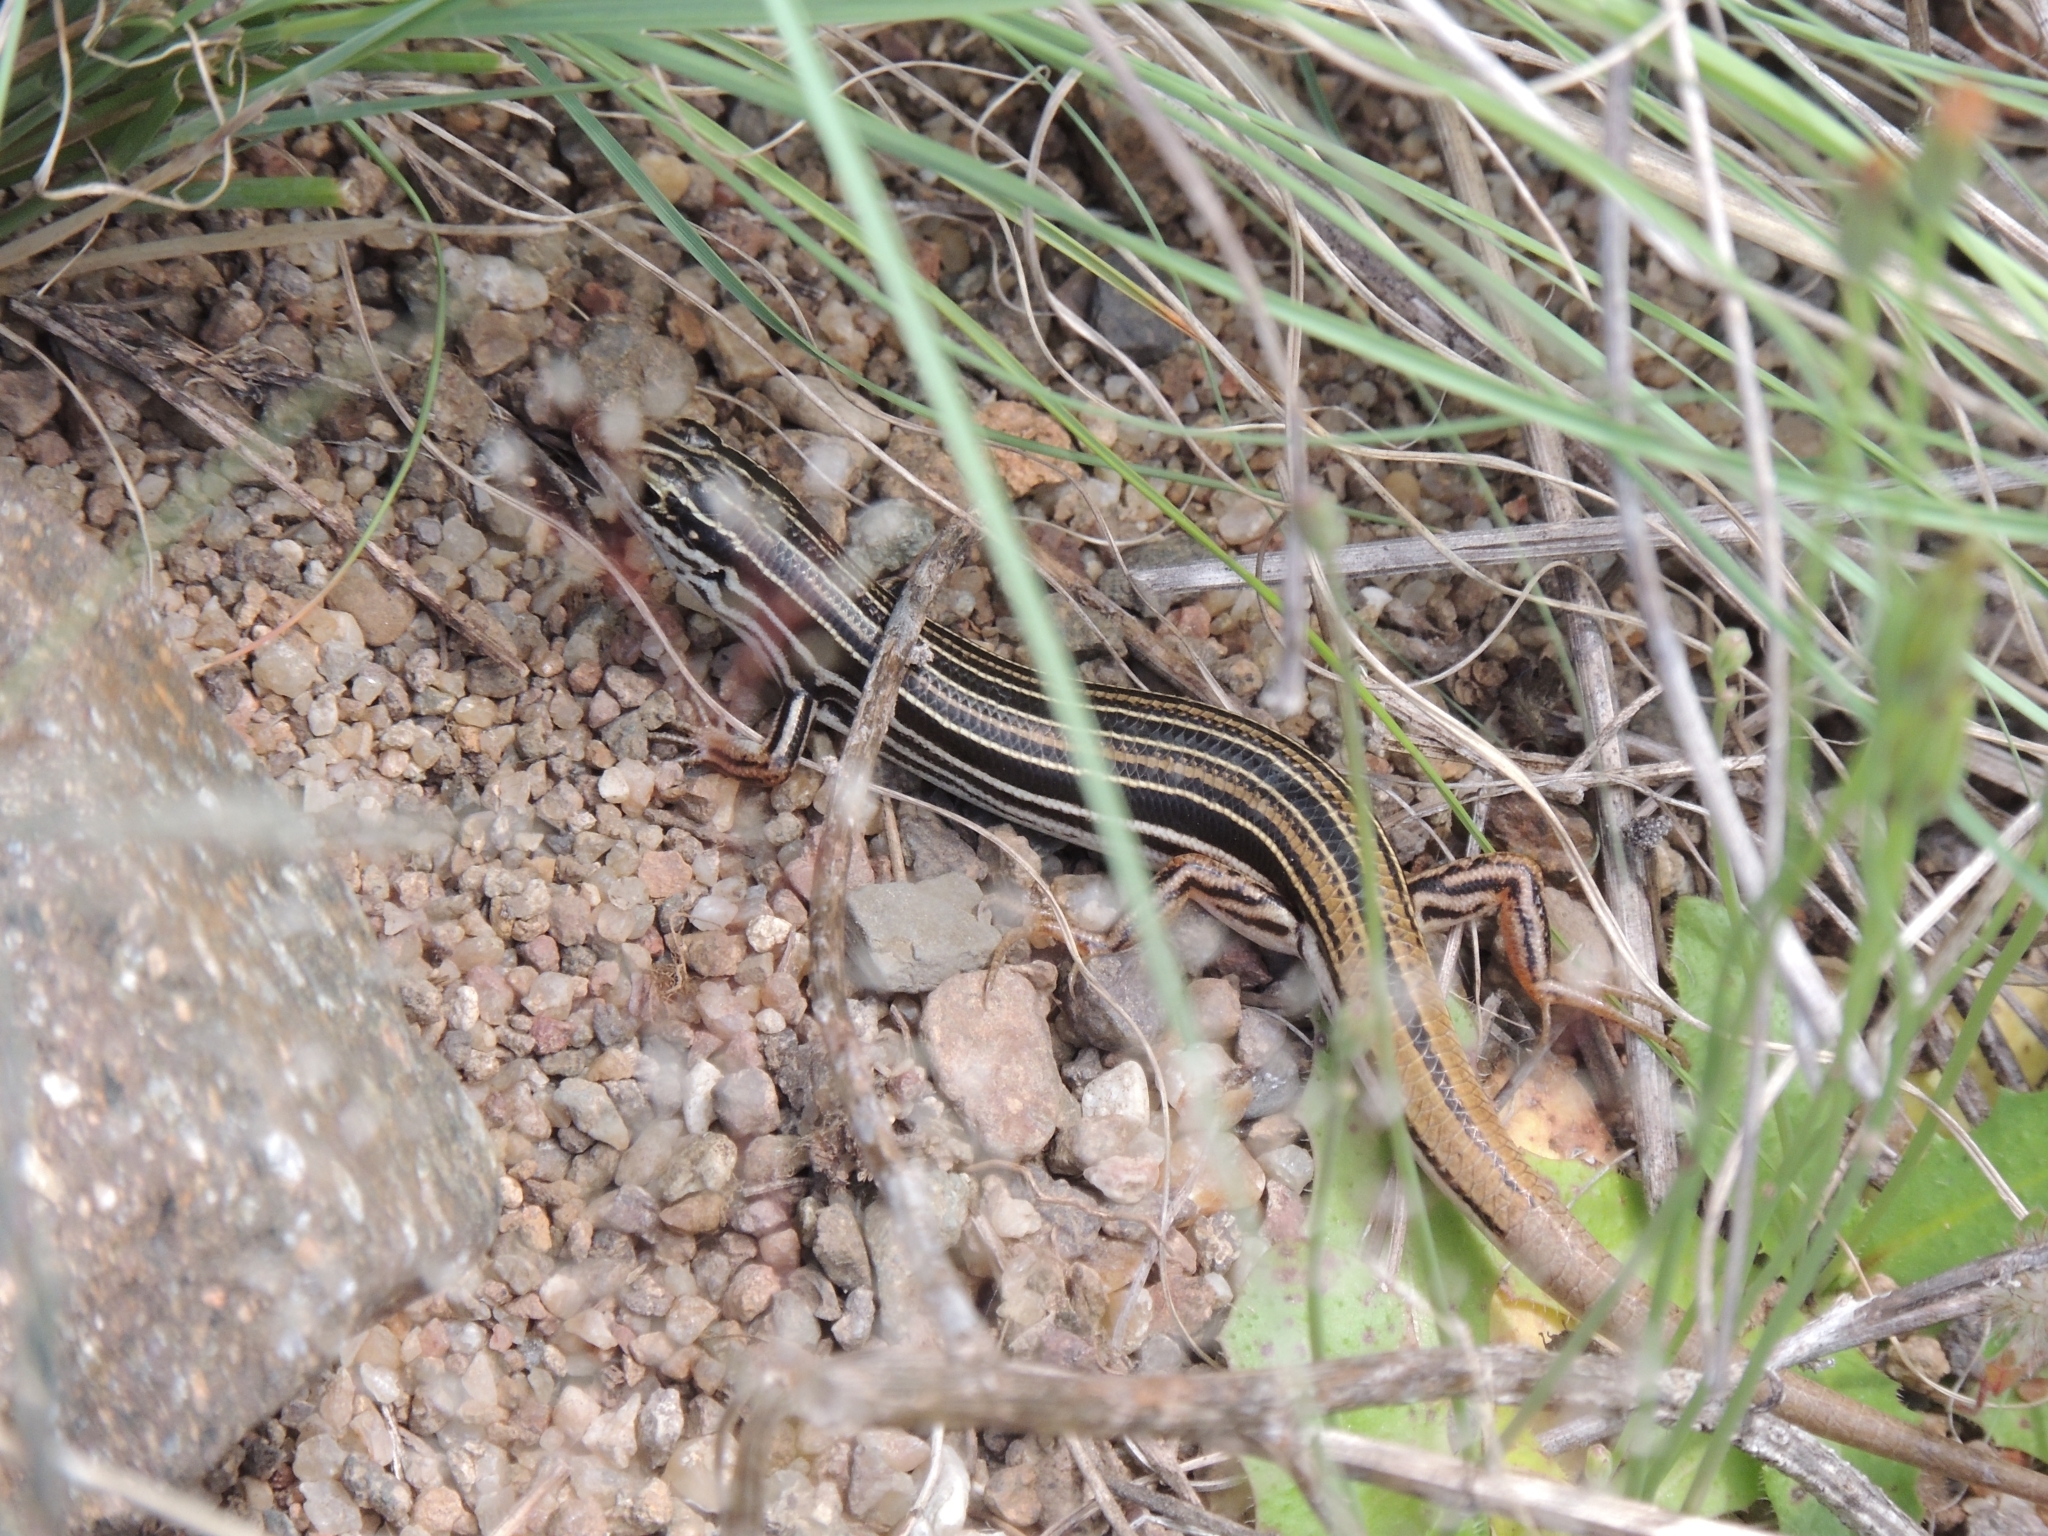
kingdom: Animalia
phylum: Chordata
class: Squamata
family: Scincidae
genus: Ctenotus
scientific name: Ctenotus taeniolatus
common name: Copper-tailed skink
